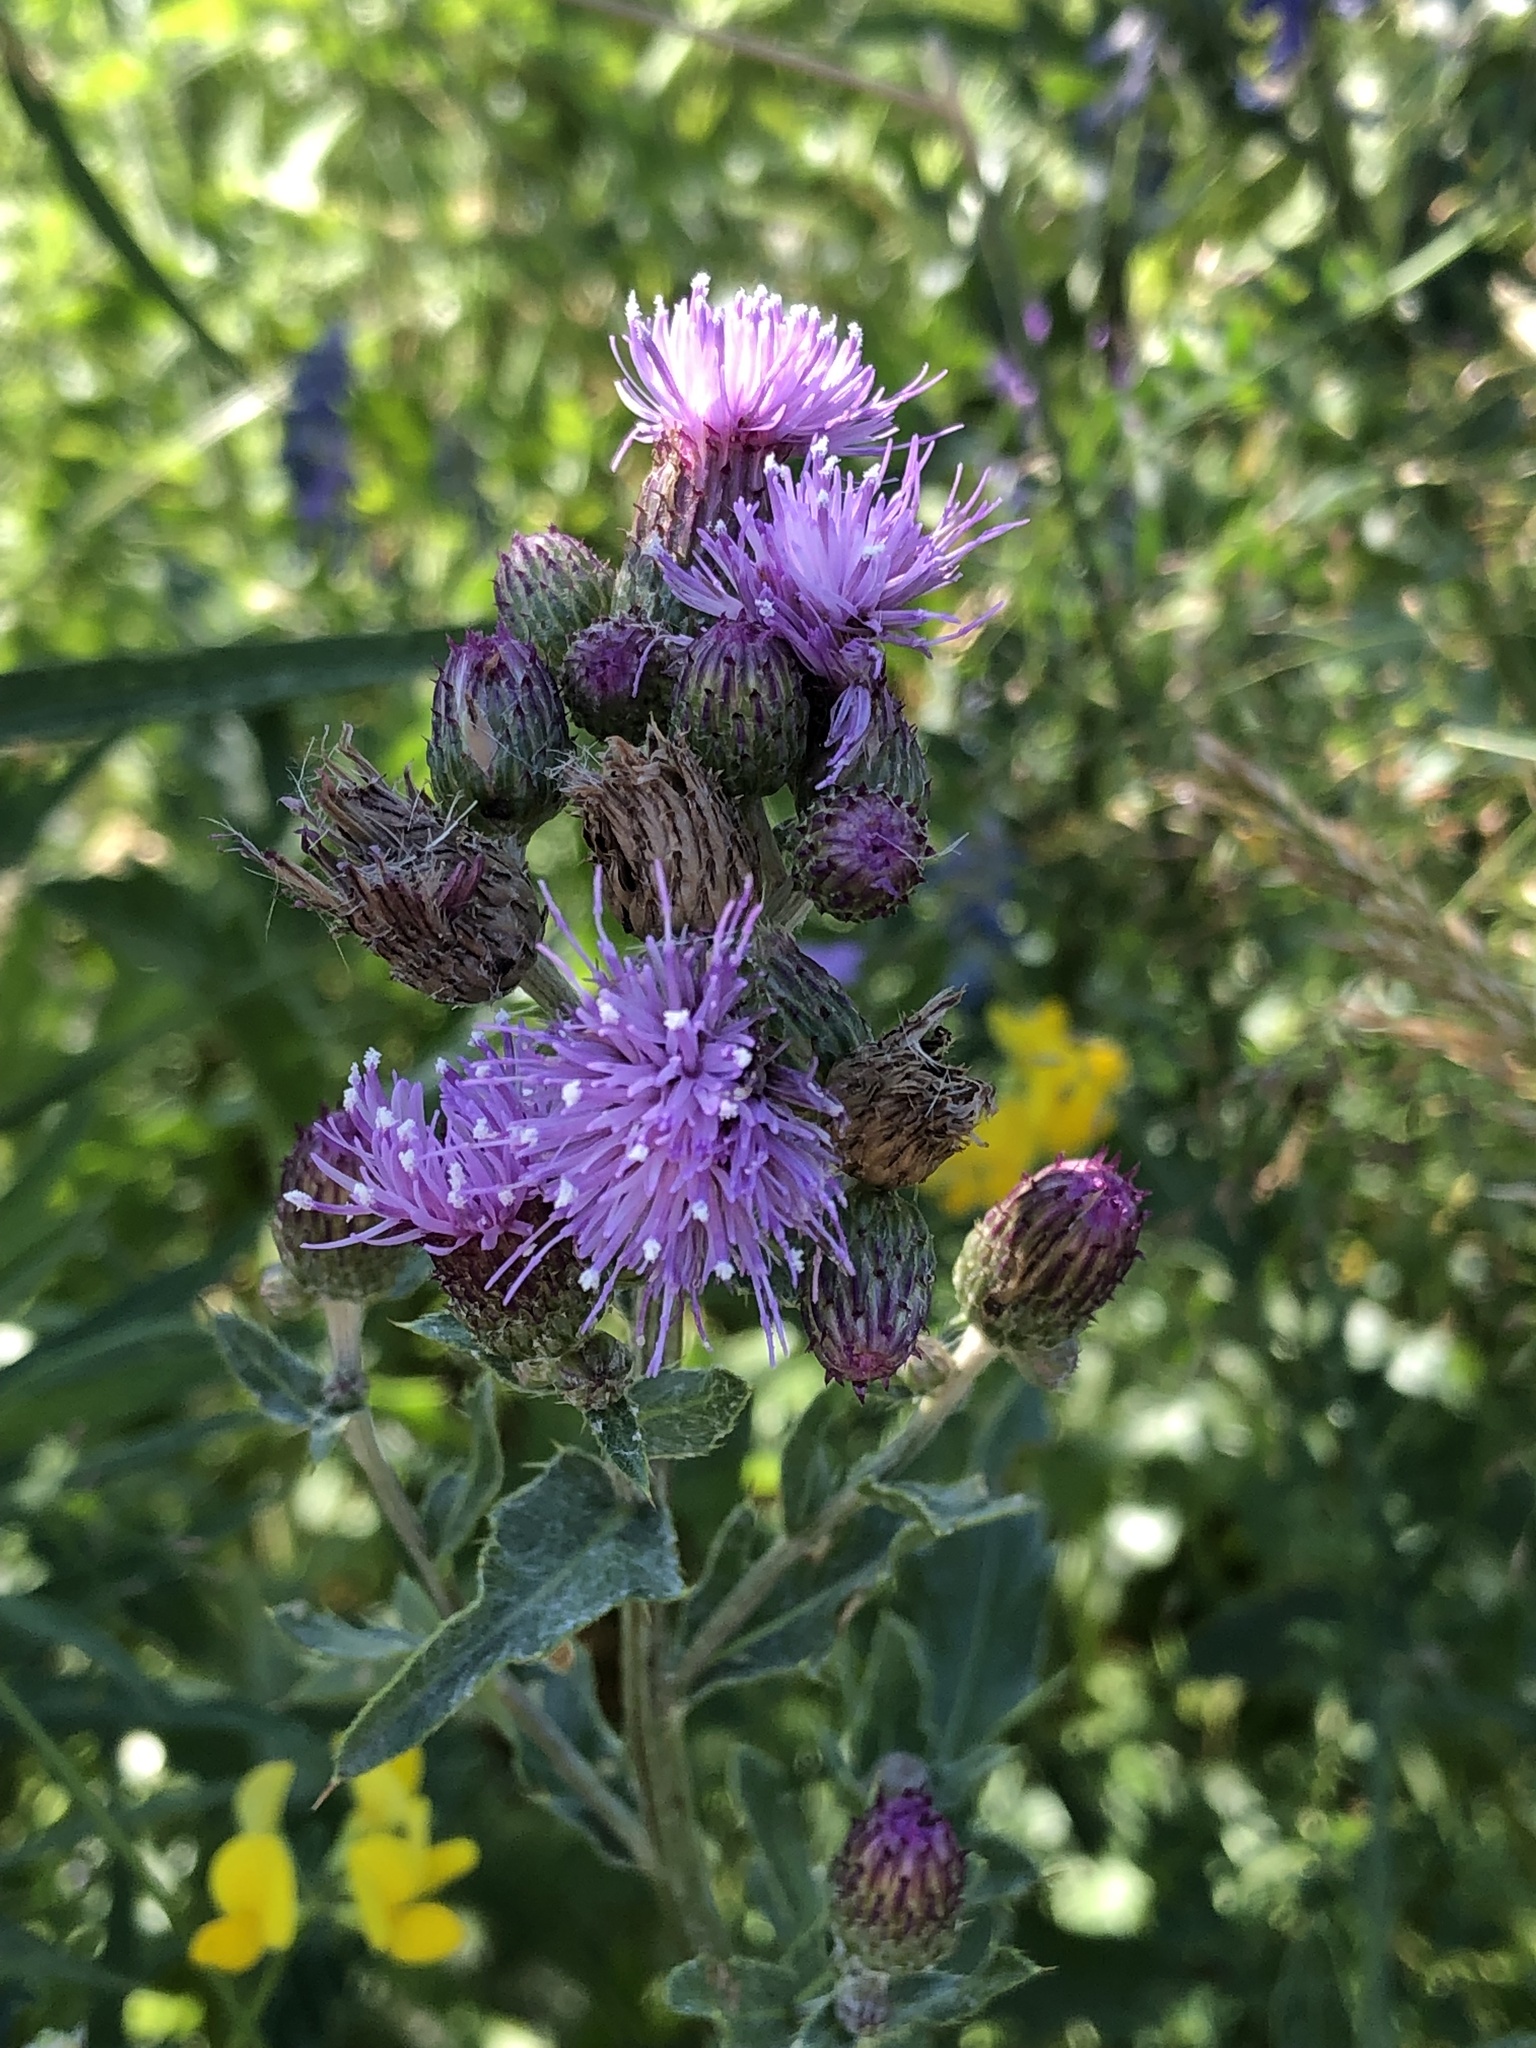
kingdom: Plantae
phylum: Tracheophyta
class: Magnoliopsida
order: Asterales
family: Asteraceae
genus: Cirsium
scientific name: Cirsium arvense
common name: Creeping thistle
